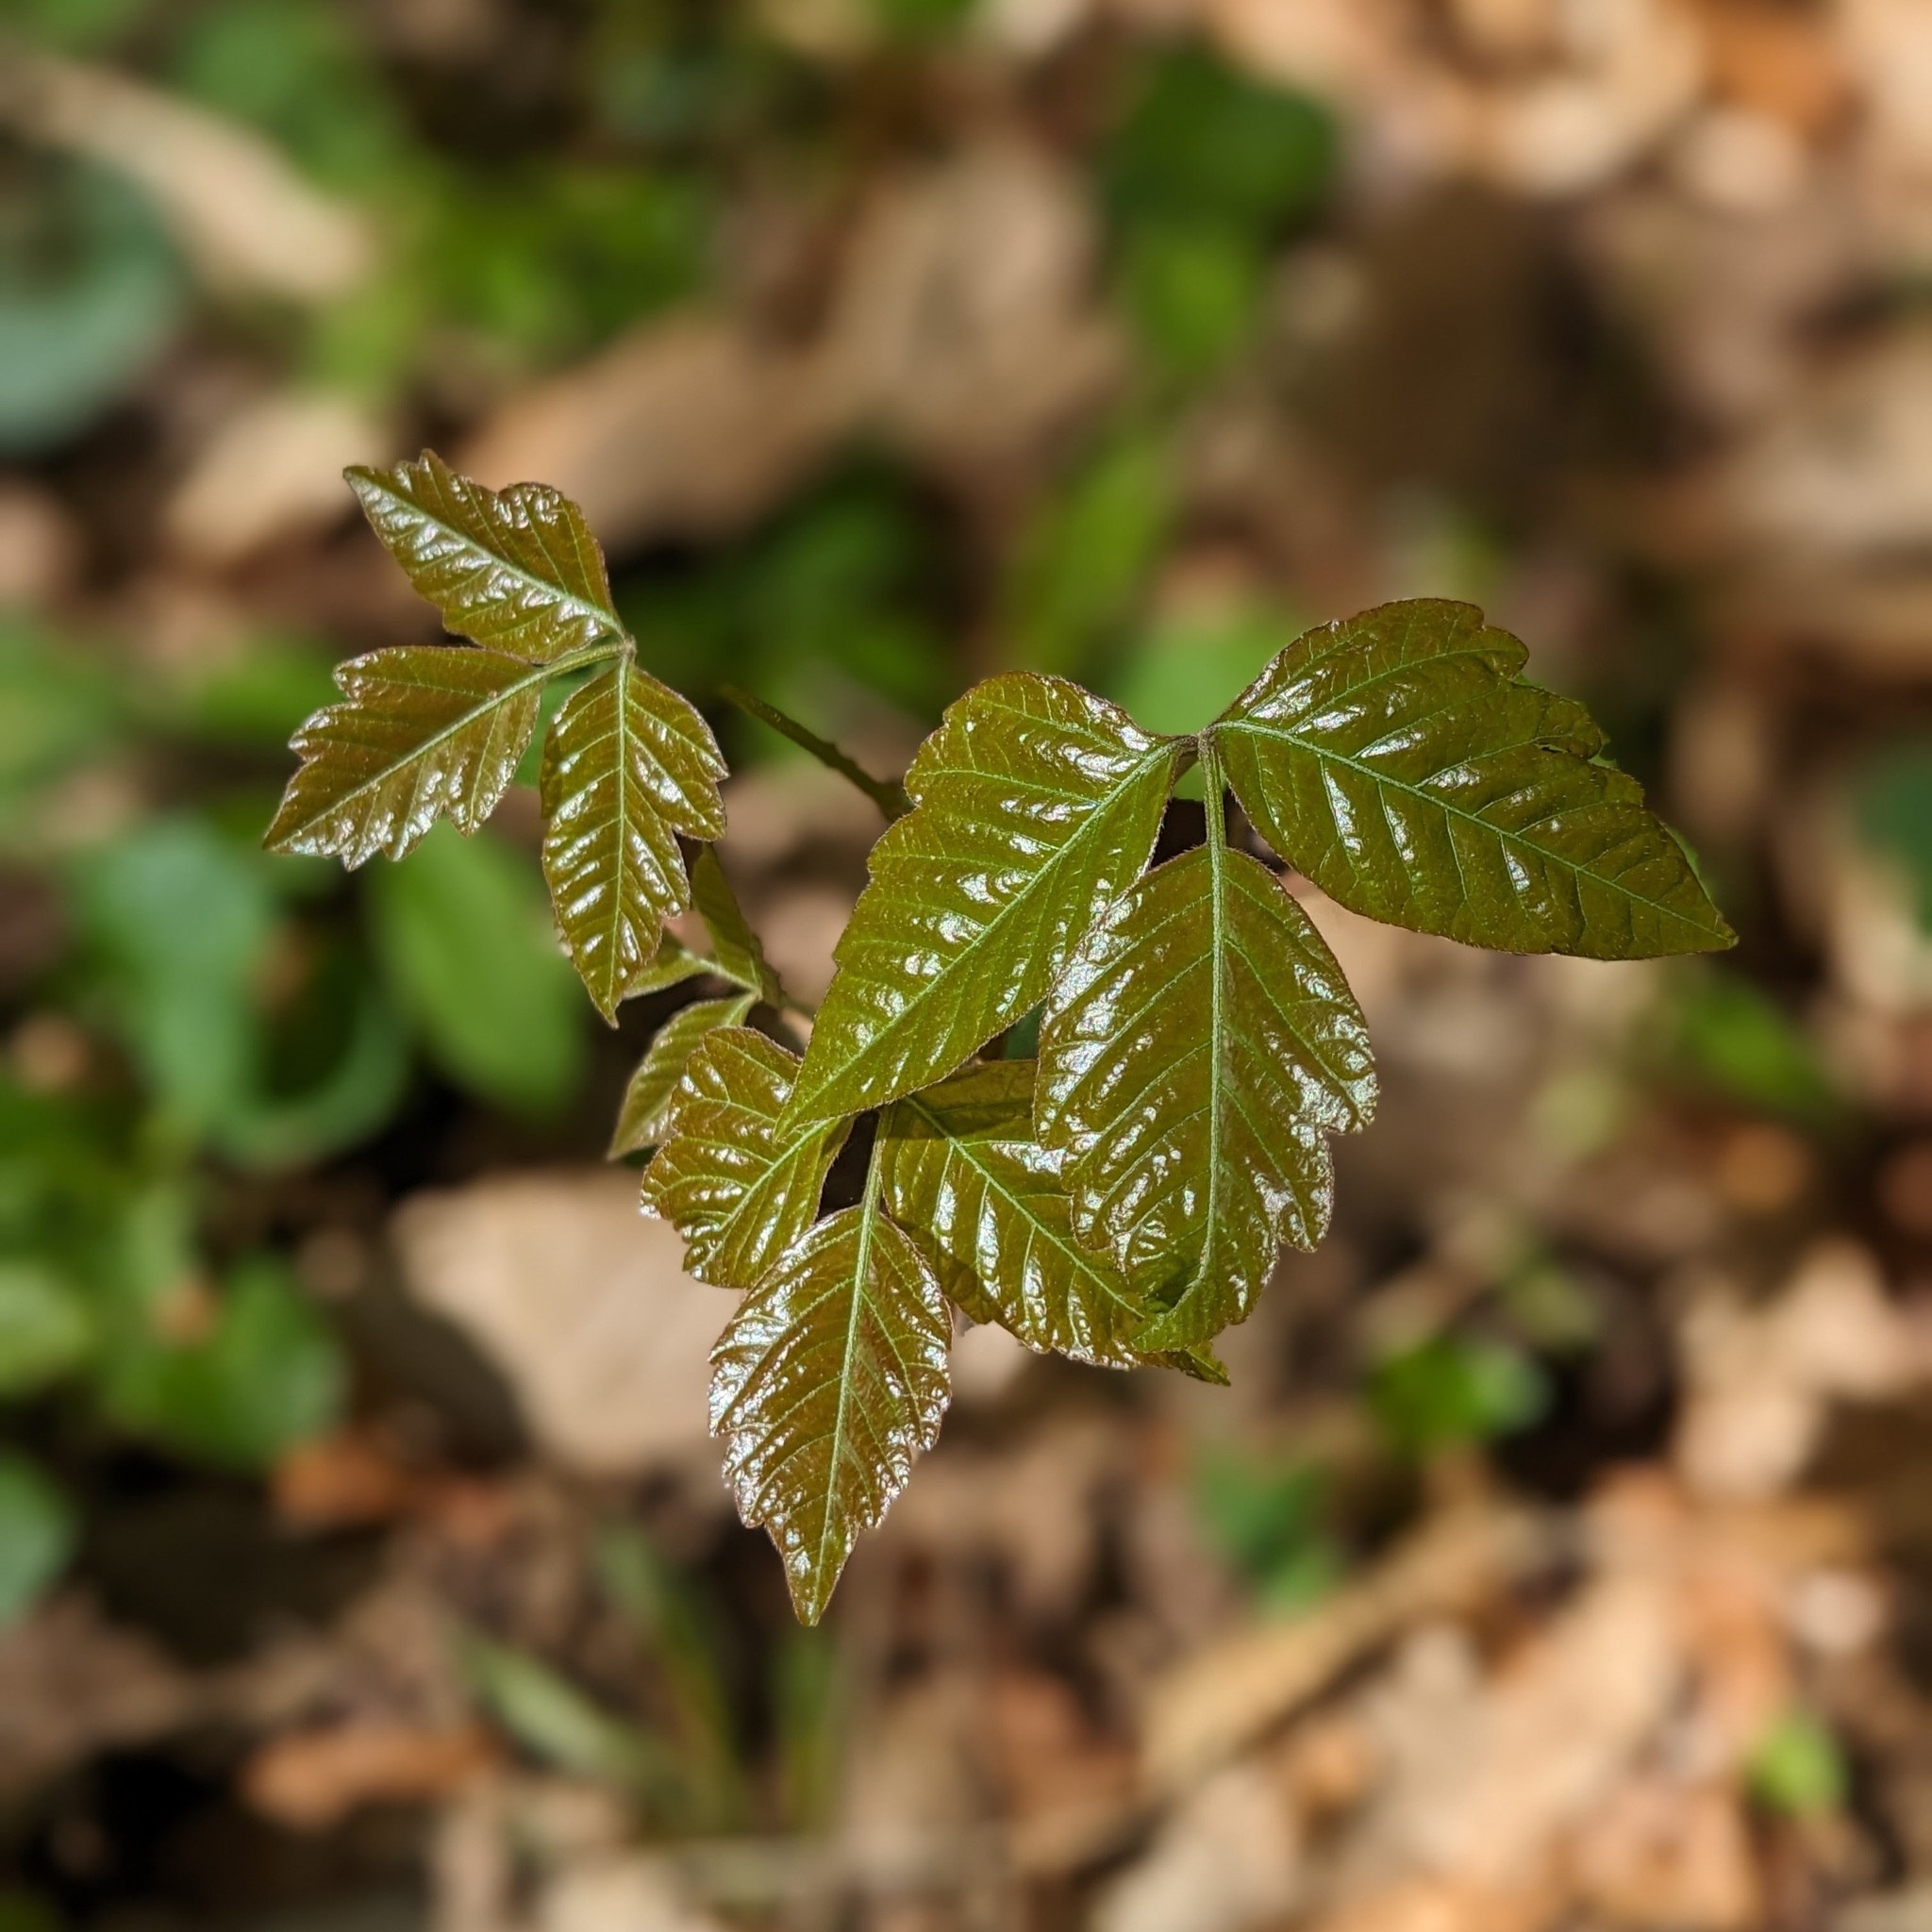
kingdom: Plantae
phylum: Tracheophyta
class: Magnoliopsida
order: Sapindales
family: Anacardiaceae
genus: Toxicodendron
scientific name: Toxicodendron radicans
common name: Poison ivy
